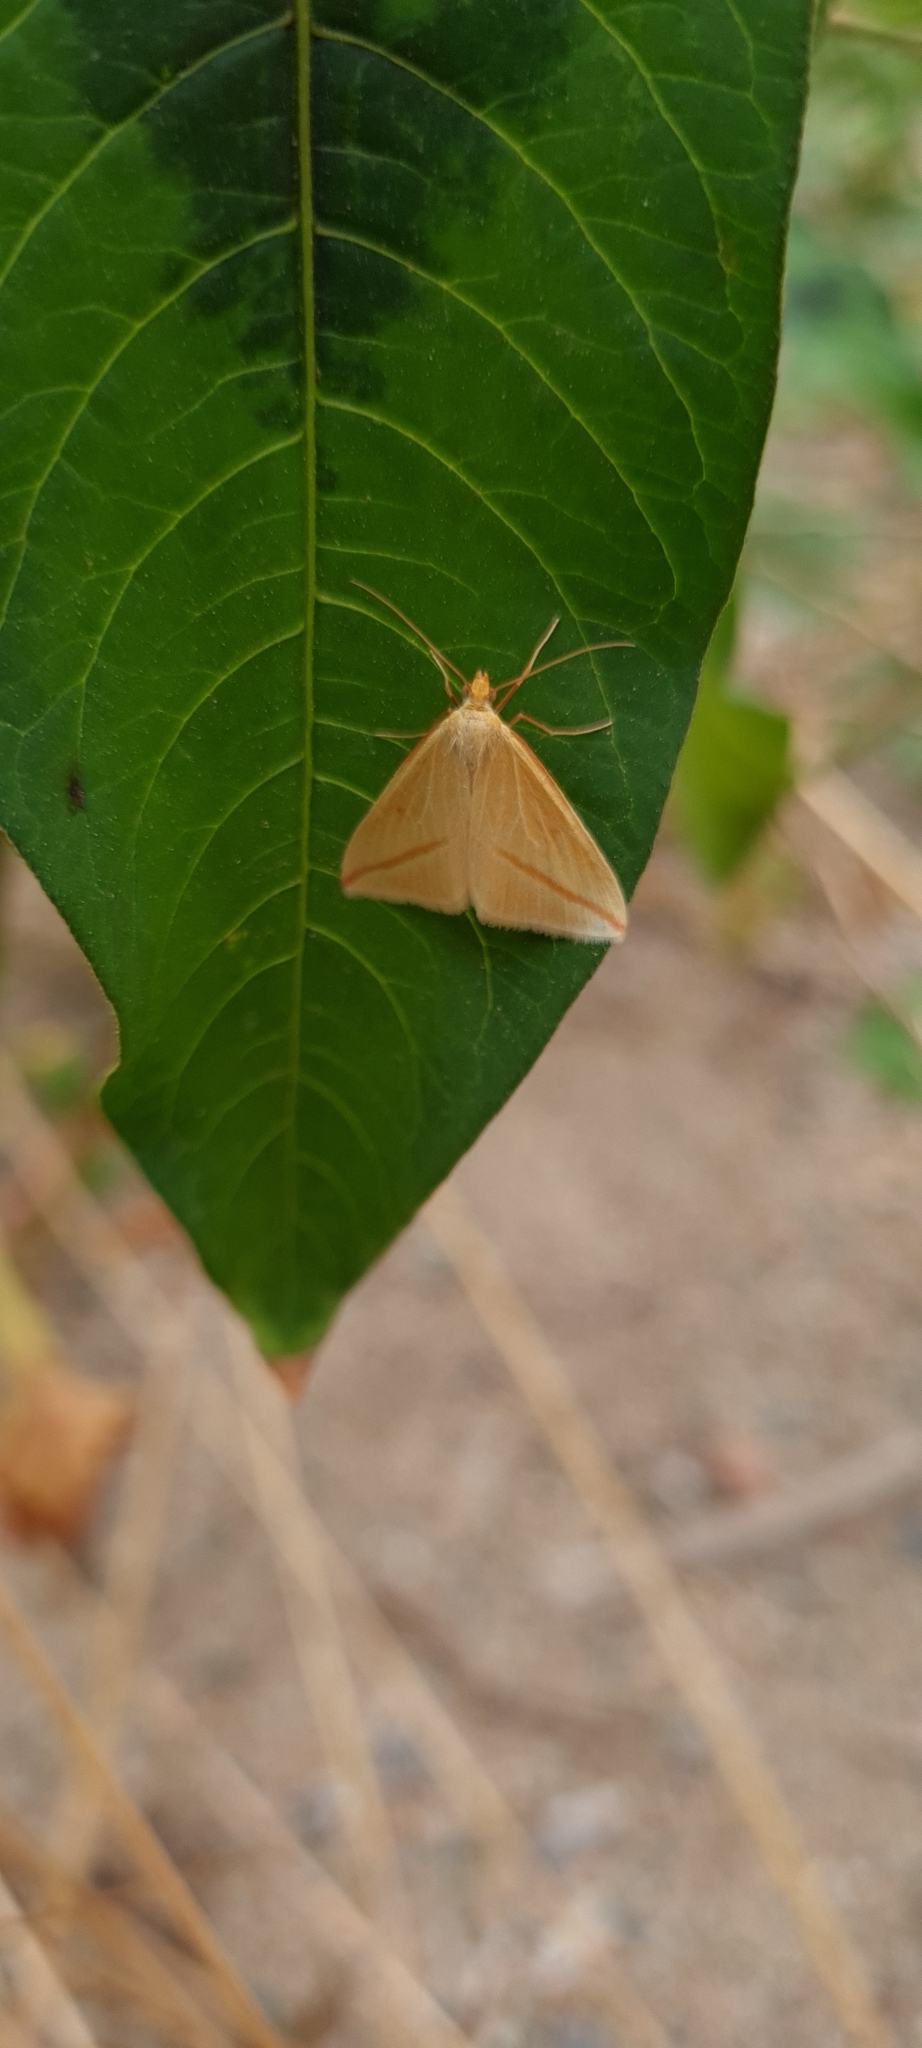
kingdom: Animalia
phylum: Arthropoda
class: Insecta
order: Lepidoptera
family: Geometridae
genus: Rhodometra
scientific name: Rhodometra sacraria
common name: Vestal
